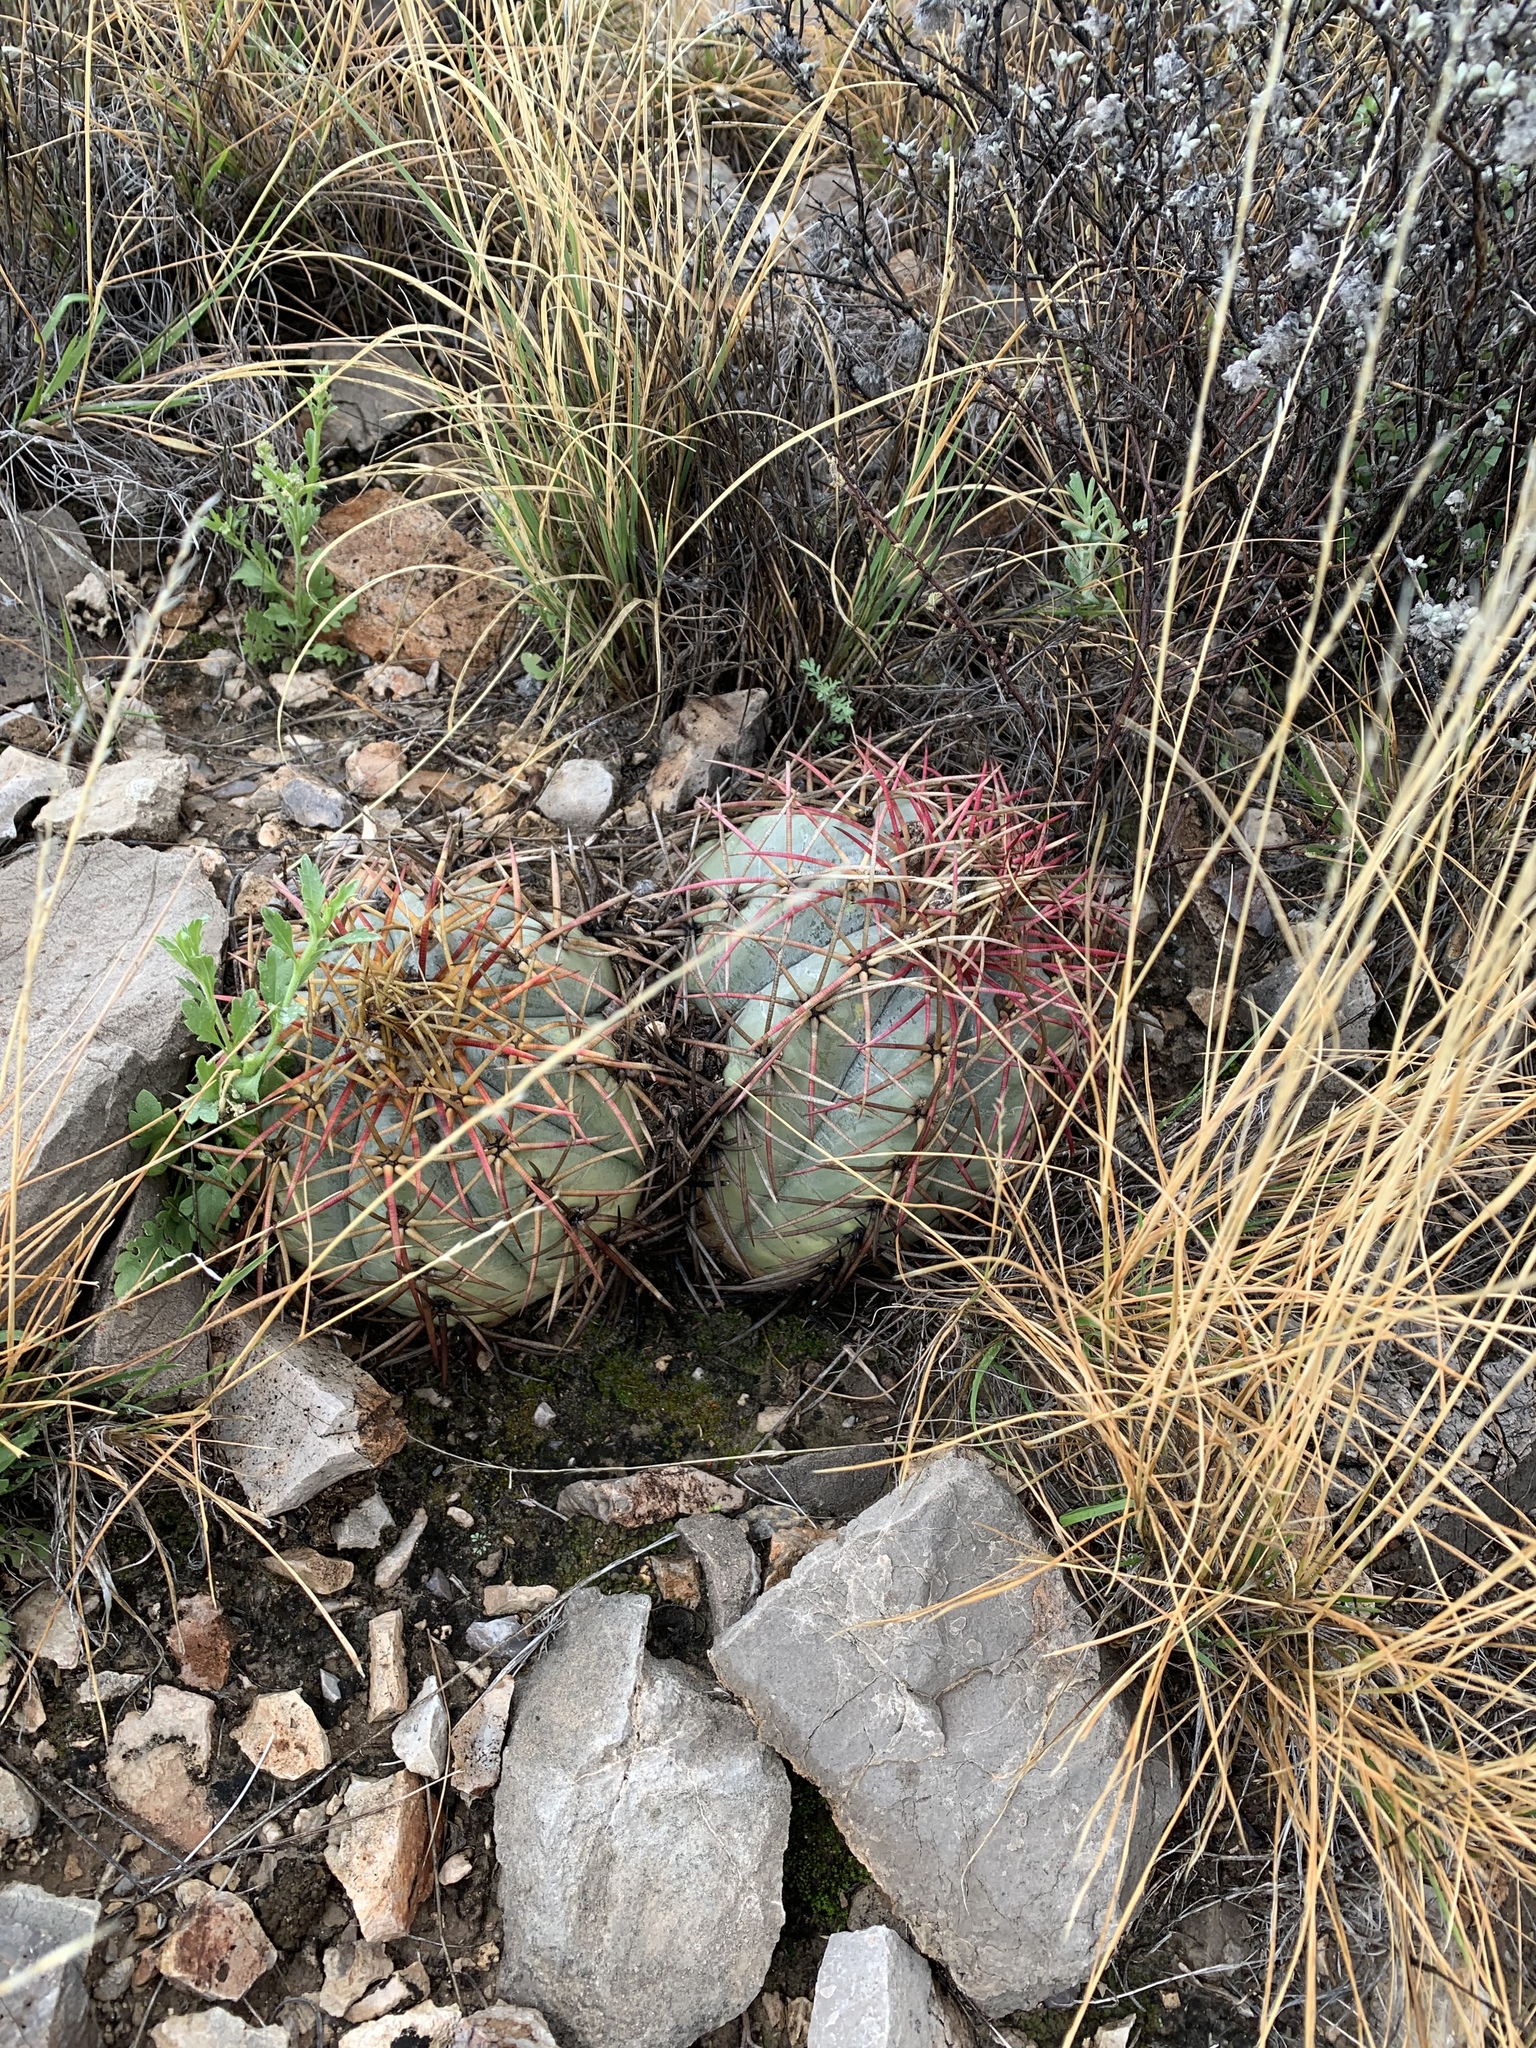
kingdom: Plantae
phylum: Tracheophyta
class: Magnoliopsida
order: Caryophyllales
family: Cactaceae
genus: Echinocactus
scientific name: Echinocactus horizonthalonius
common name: Devilshead
